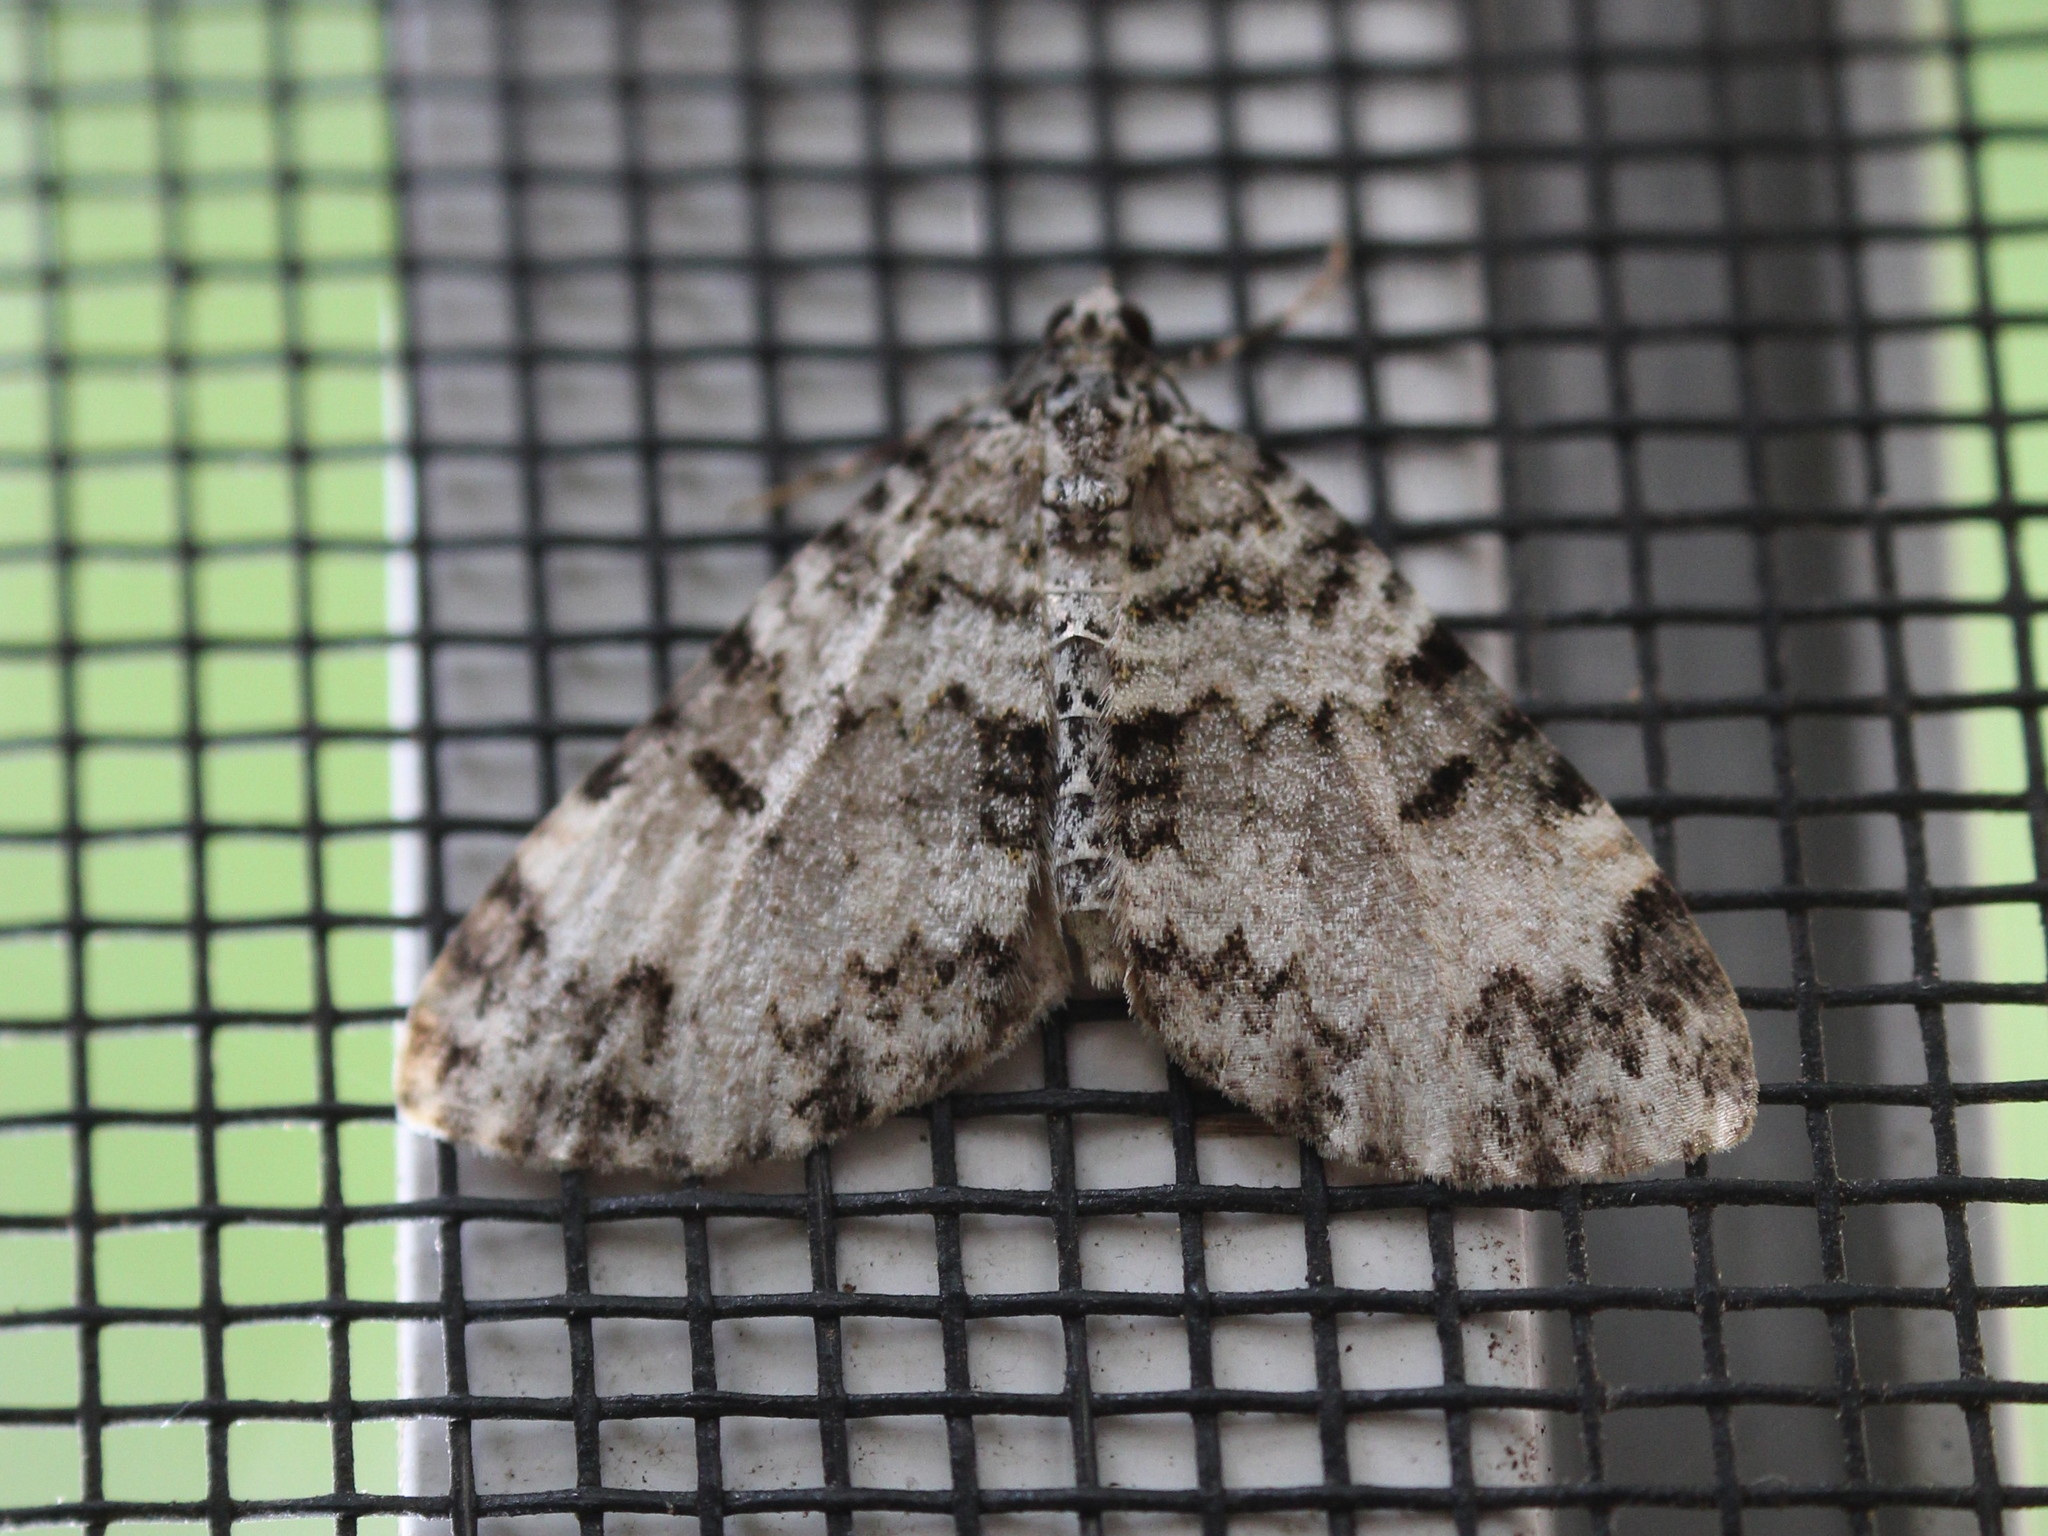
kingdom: Animalia
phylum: Arthropoda
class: Insecta
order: Lepidoptera
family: Geometridae
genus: Spargania
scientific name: Spargania magnoliata
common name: Double-banded carpet
